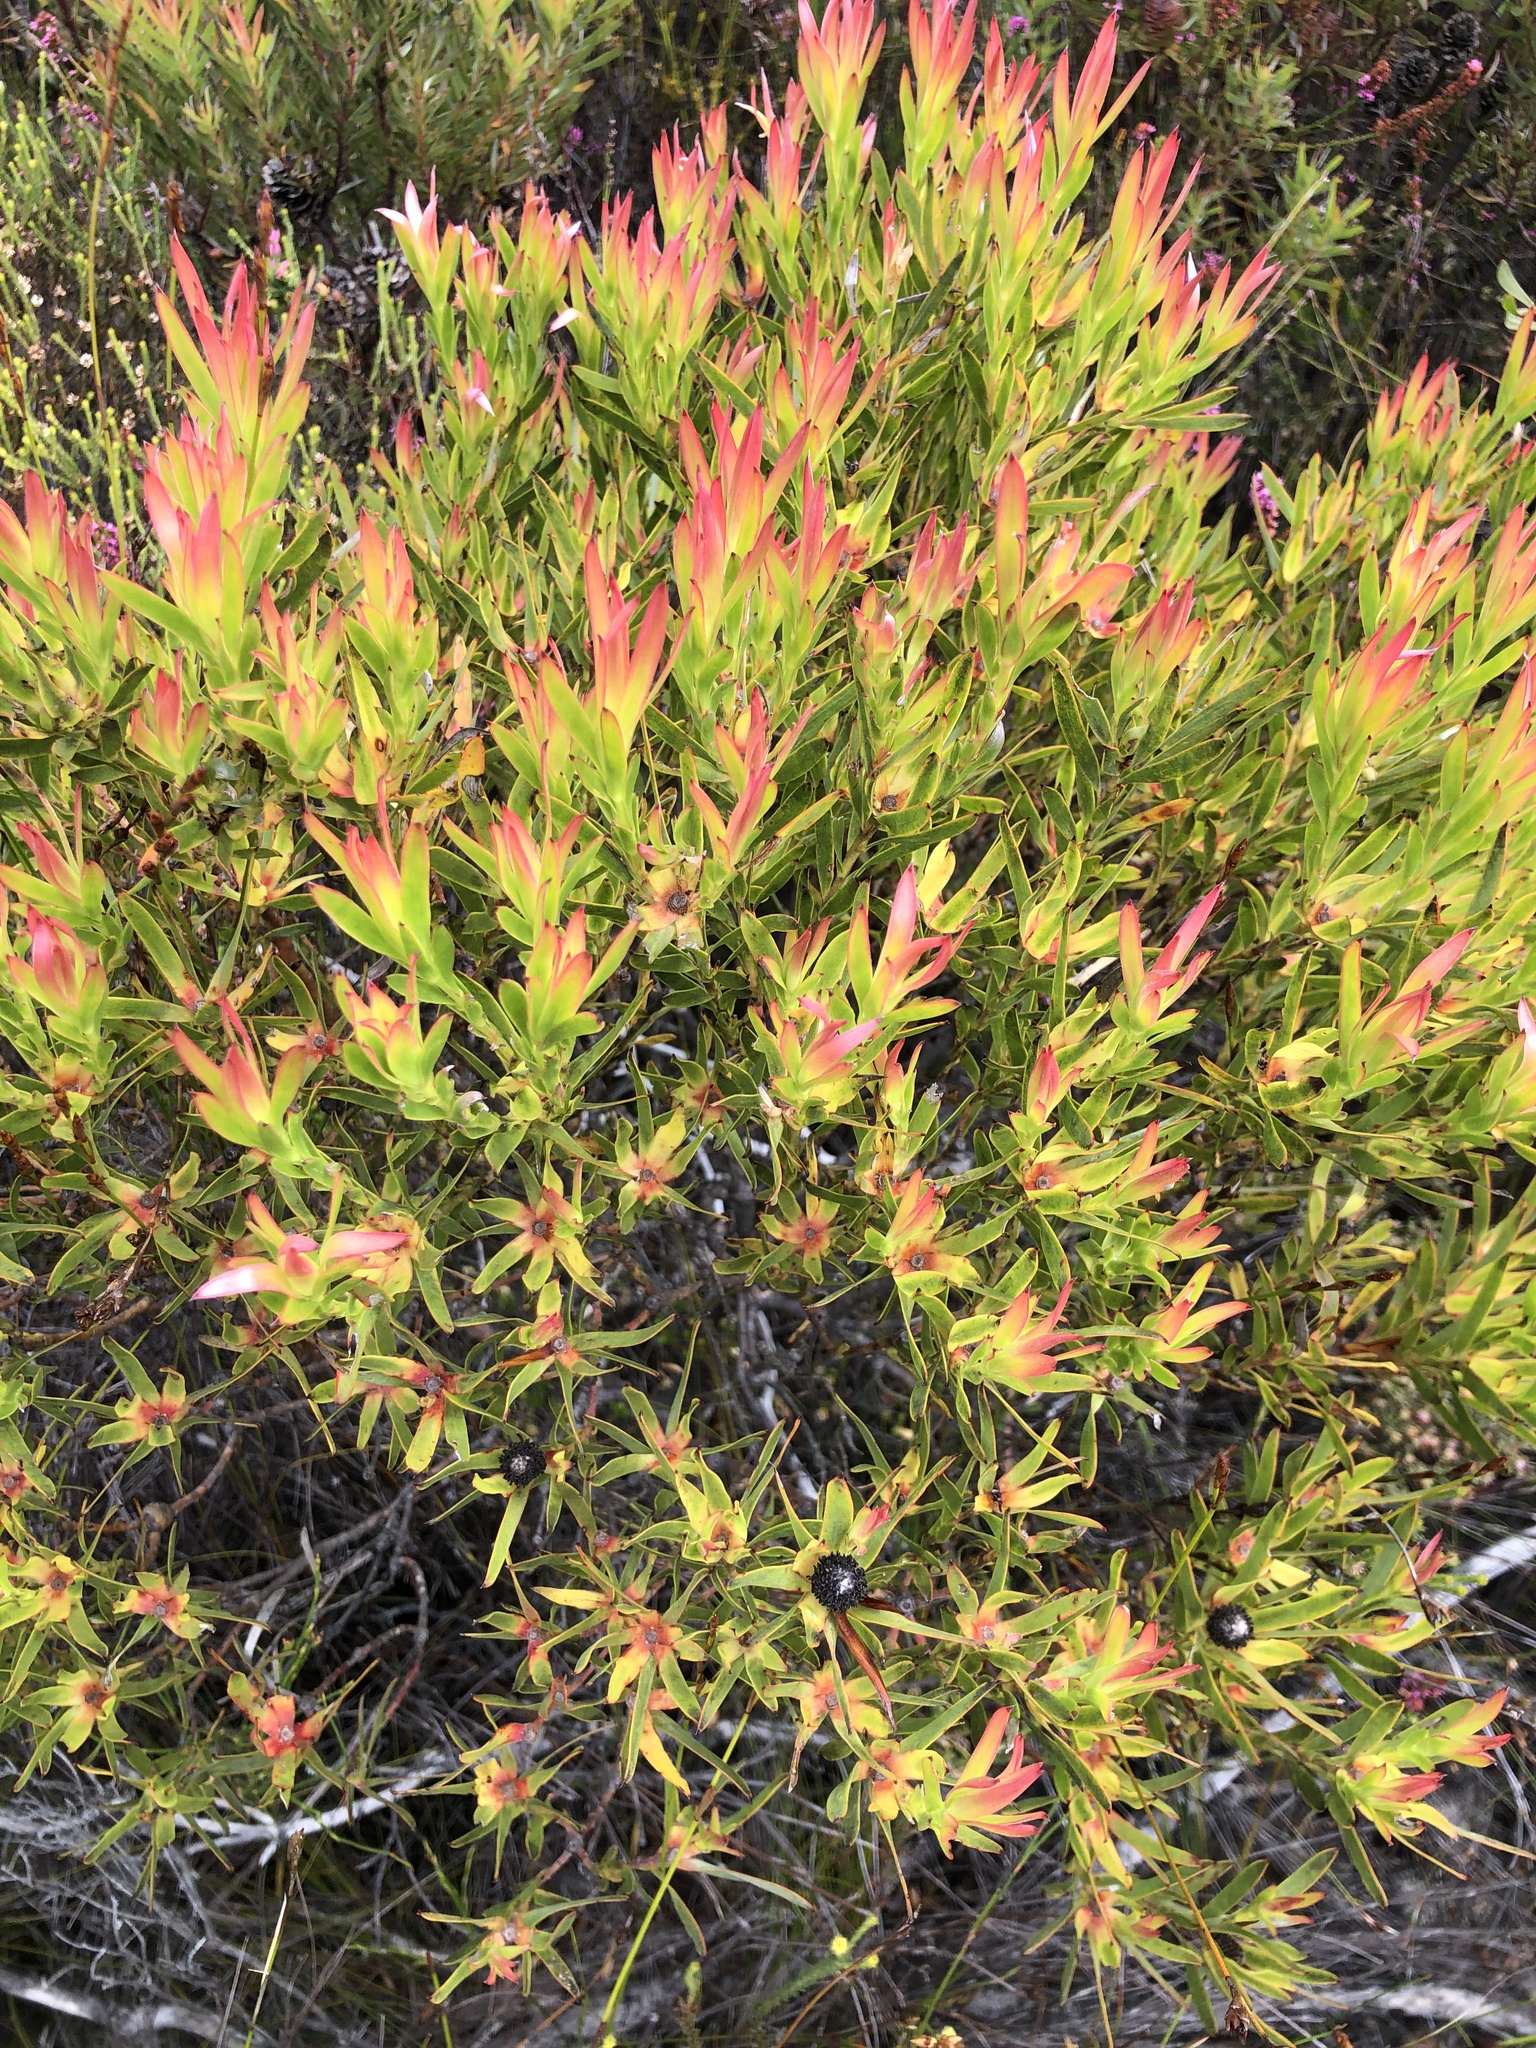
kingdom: Plantae
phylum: Tracheophyta
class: Magnoliopsida
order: Proteales
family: Proteaceae
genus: Leucadendron
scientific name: Leucadendron xanthoconus
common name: Sickle-leaf conebush
